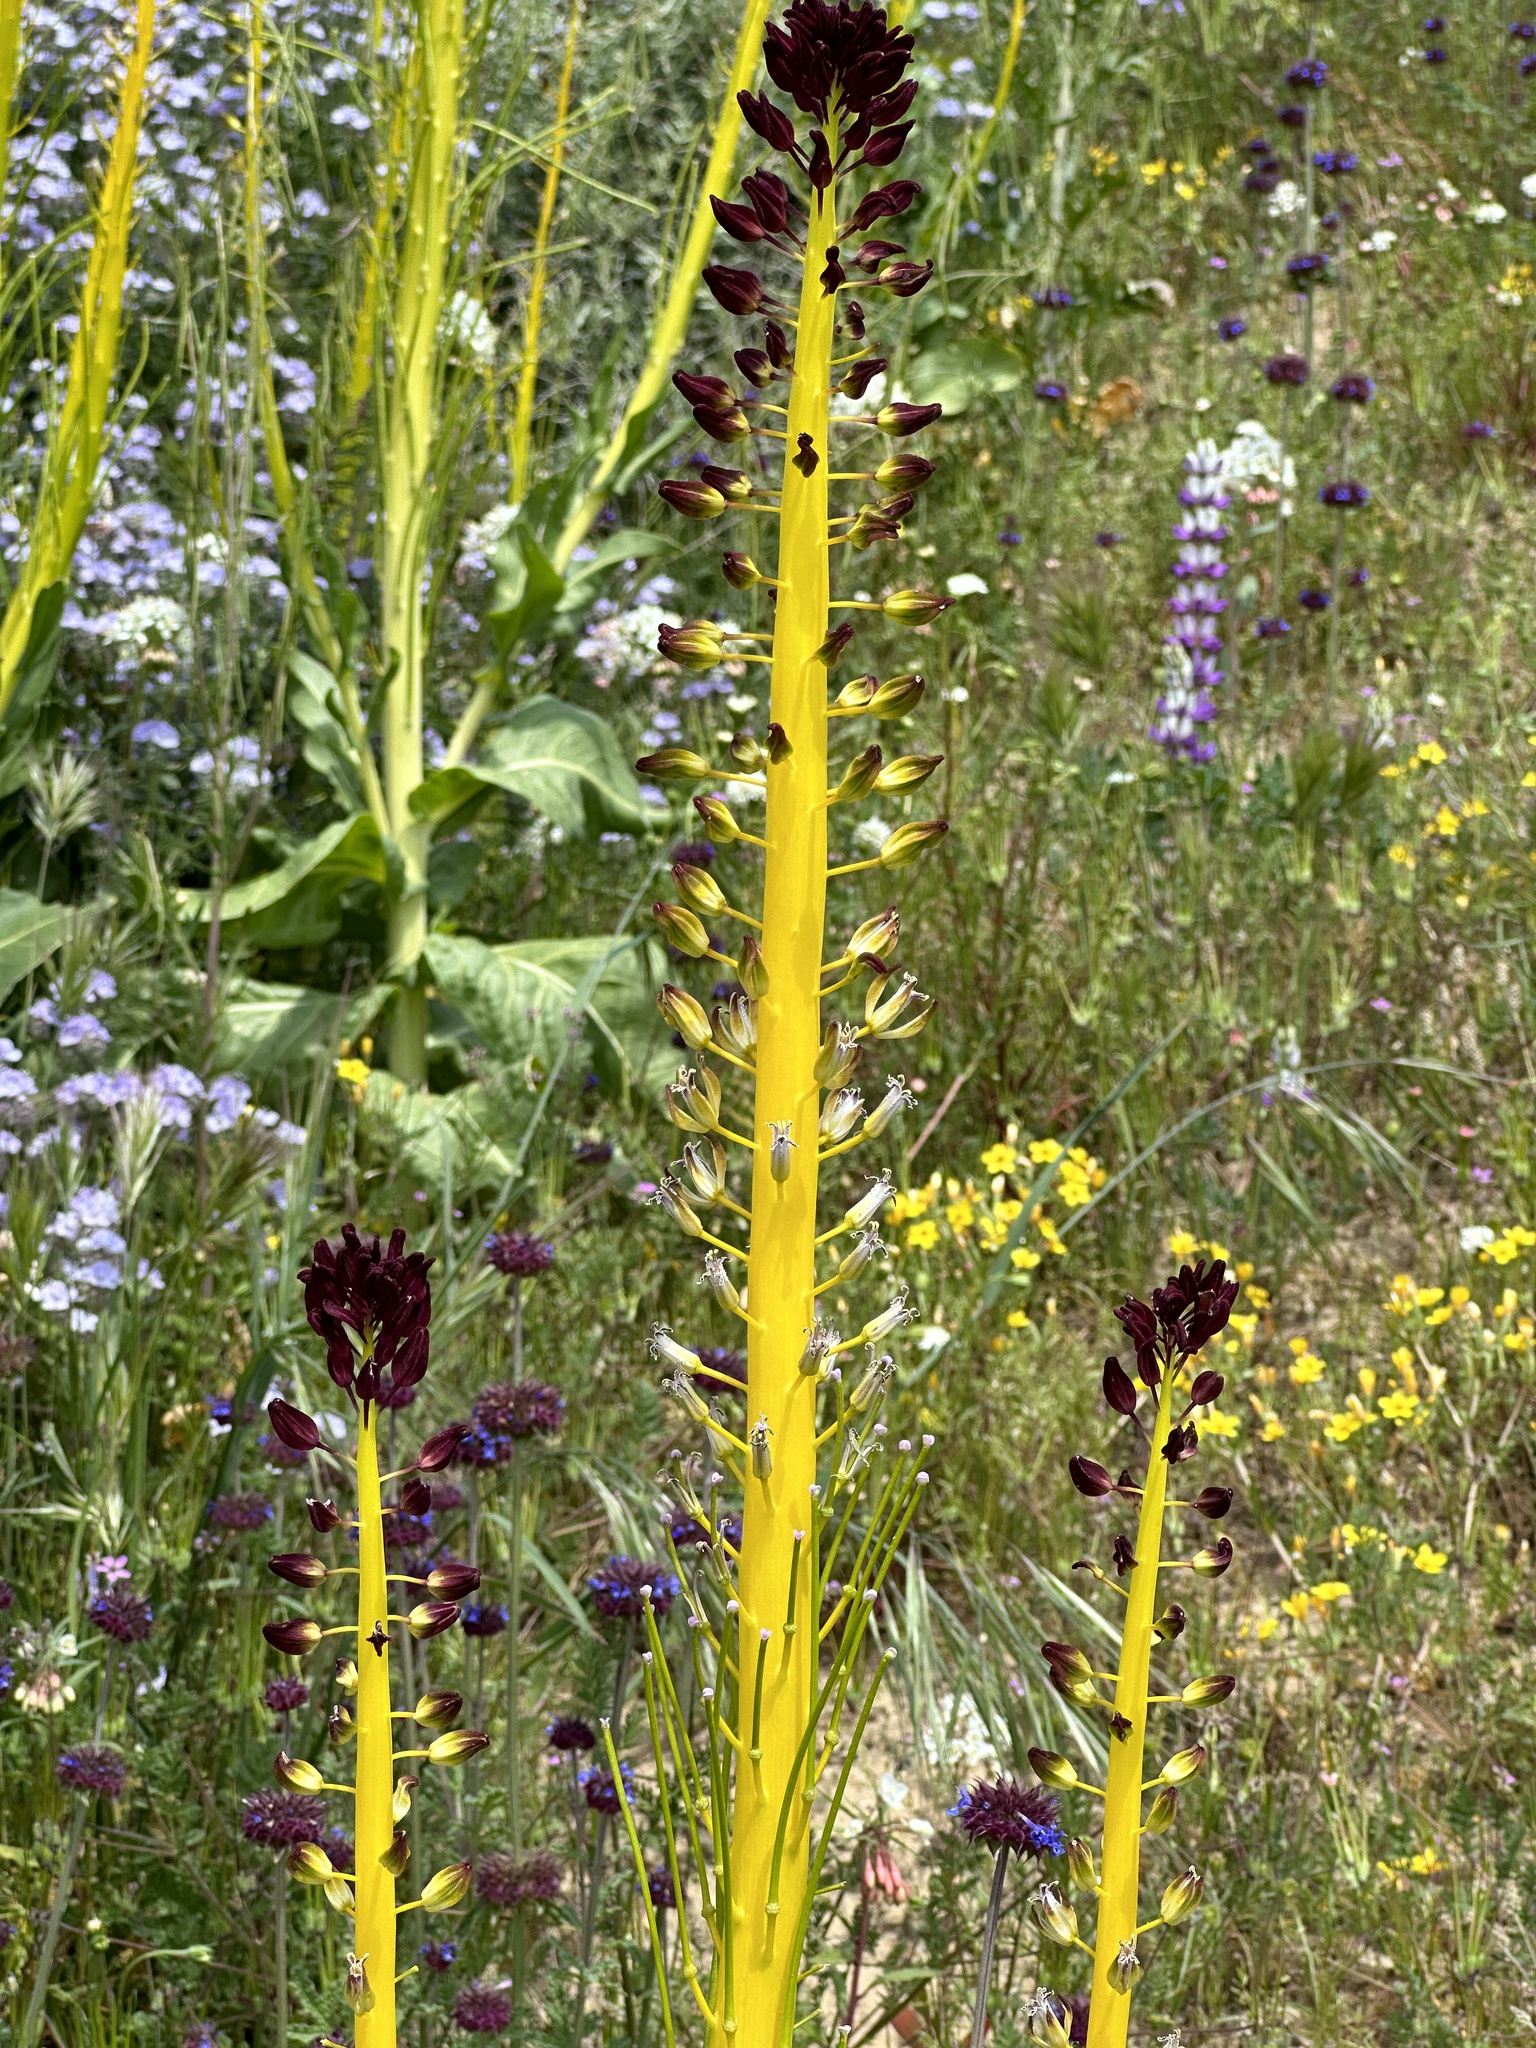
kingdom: Plantae
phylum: Tracheophyta
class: Magnoliopsida
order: Brassicales
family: Brassicaceae
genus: Streptanthus
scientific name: Streptanthus inflatus
